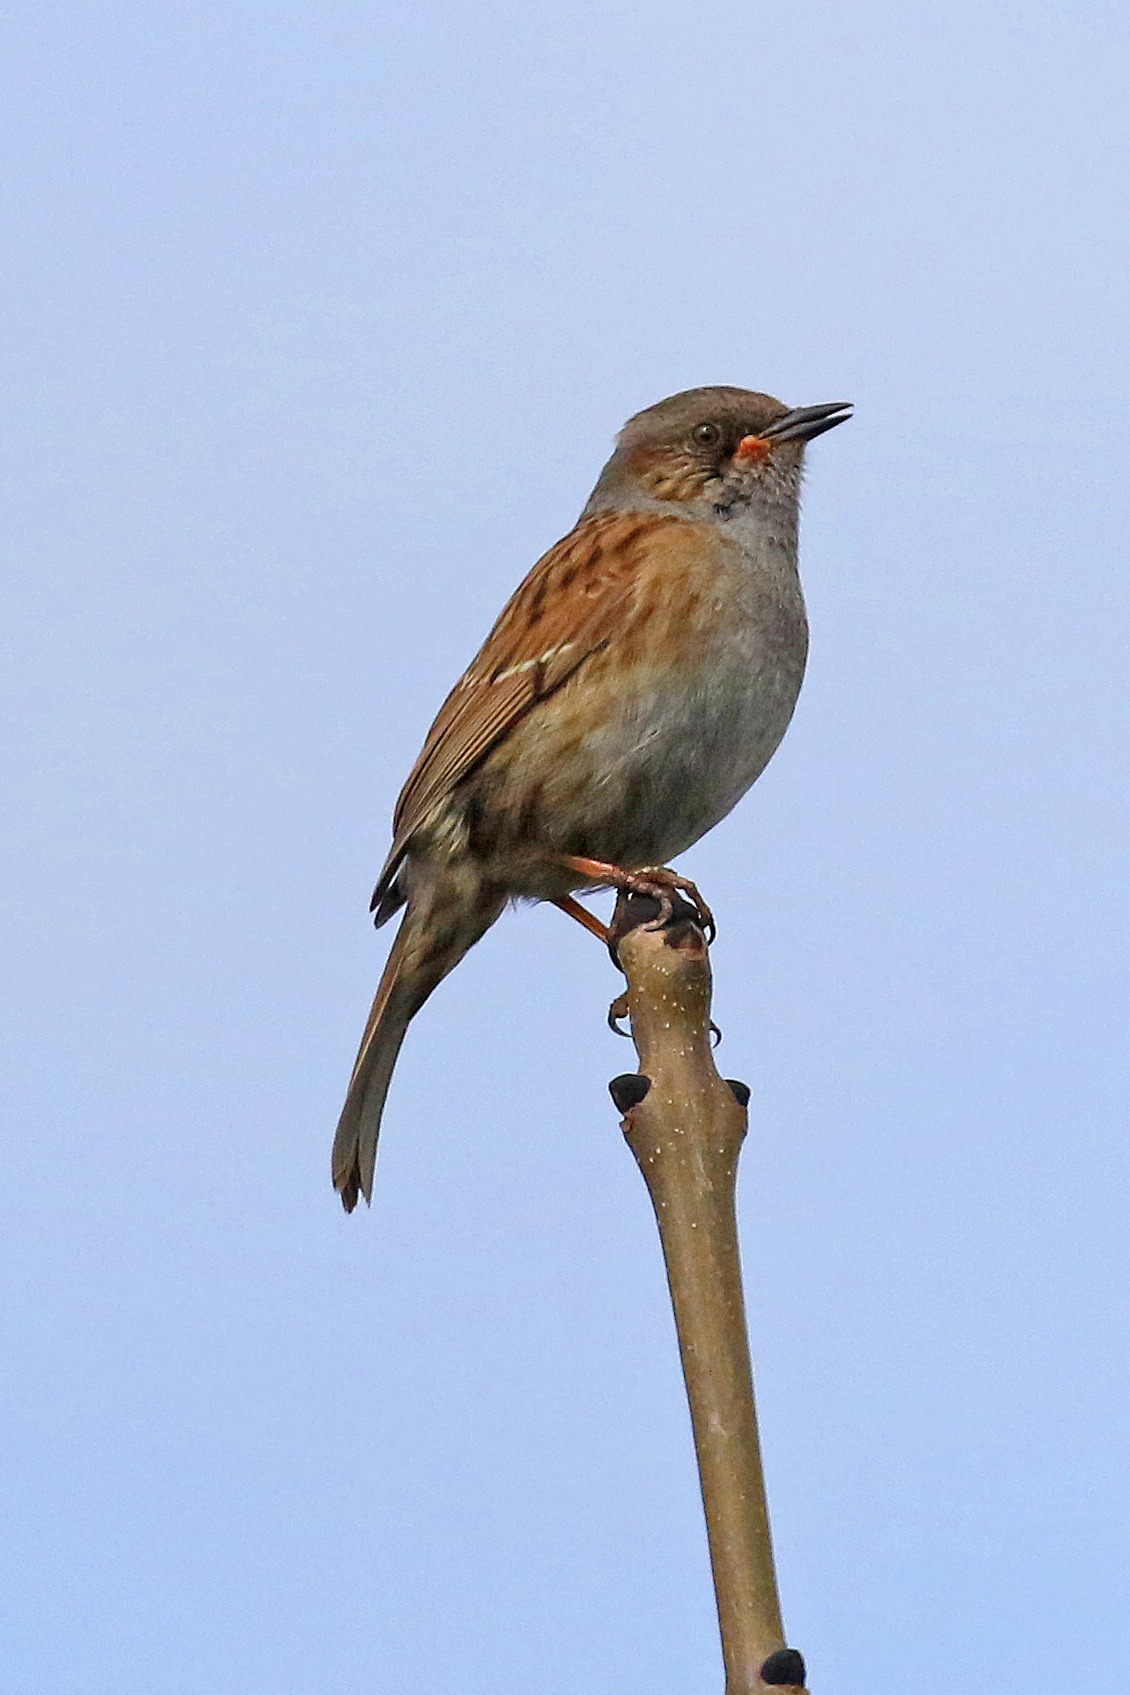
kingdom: Animalia
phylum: Chordata
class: Aves
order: Passeriformes
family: Prunellidae
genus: Prunella
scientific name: Prunella modularis
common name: Dunnock
